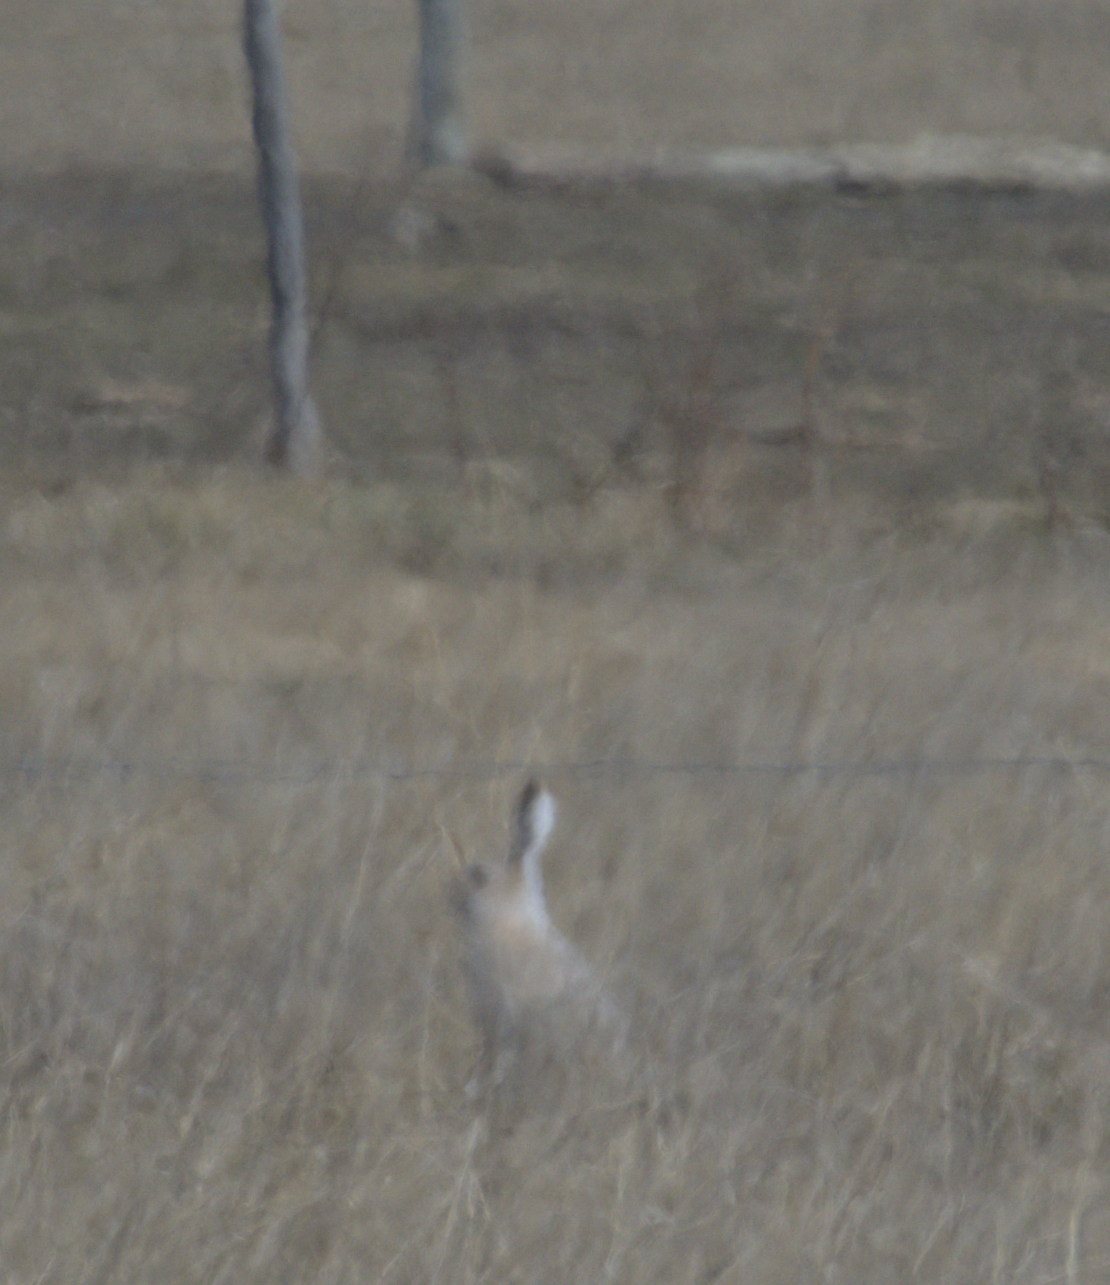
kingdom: Animalia
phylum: Chordata
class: Mammalia
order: Lagomorpha
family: Leporidae
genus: Lepus
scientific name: Lepus townsendii
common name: White-tailed jackrabbit
